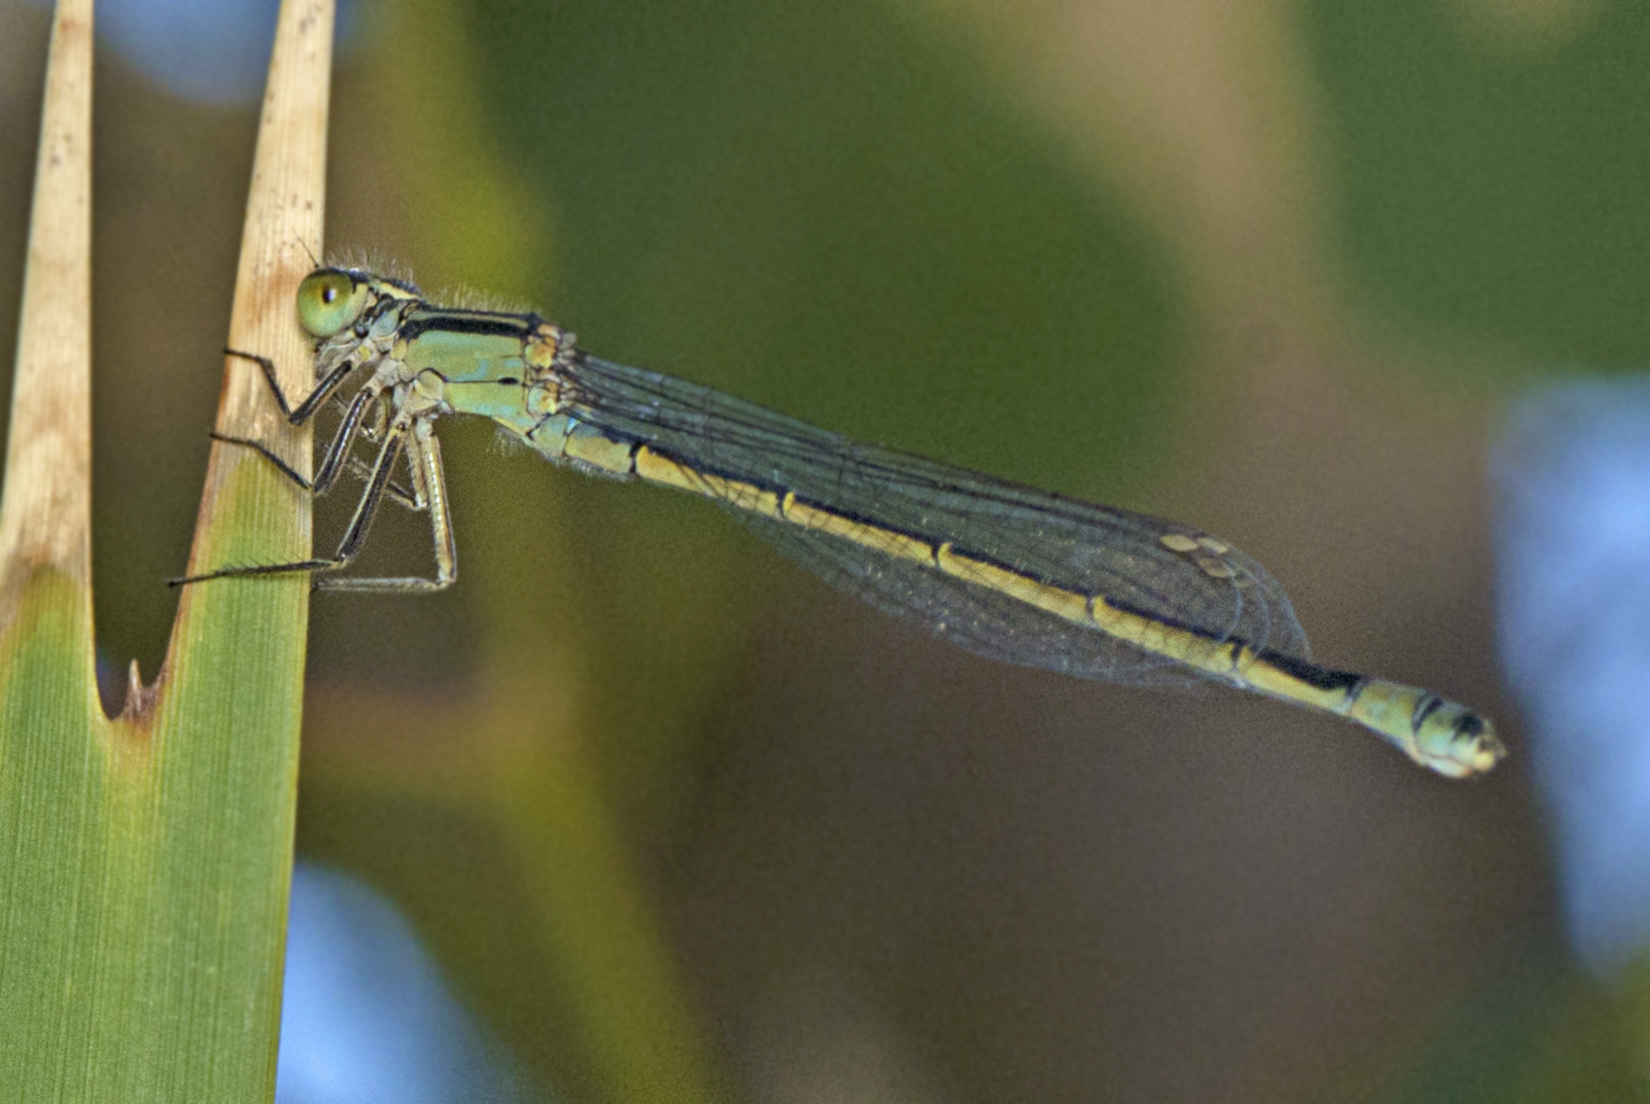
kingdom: Animalia
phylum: Arthropoda
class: Insecta
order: Odonata
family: Coenagrionidae
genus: Ischnura
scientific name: Ischnura heterosticta
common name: Common bluetail
